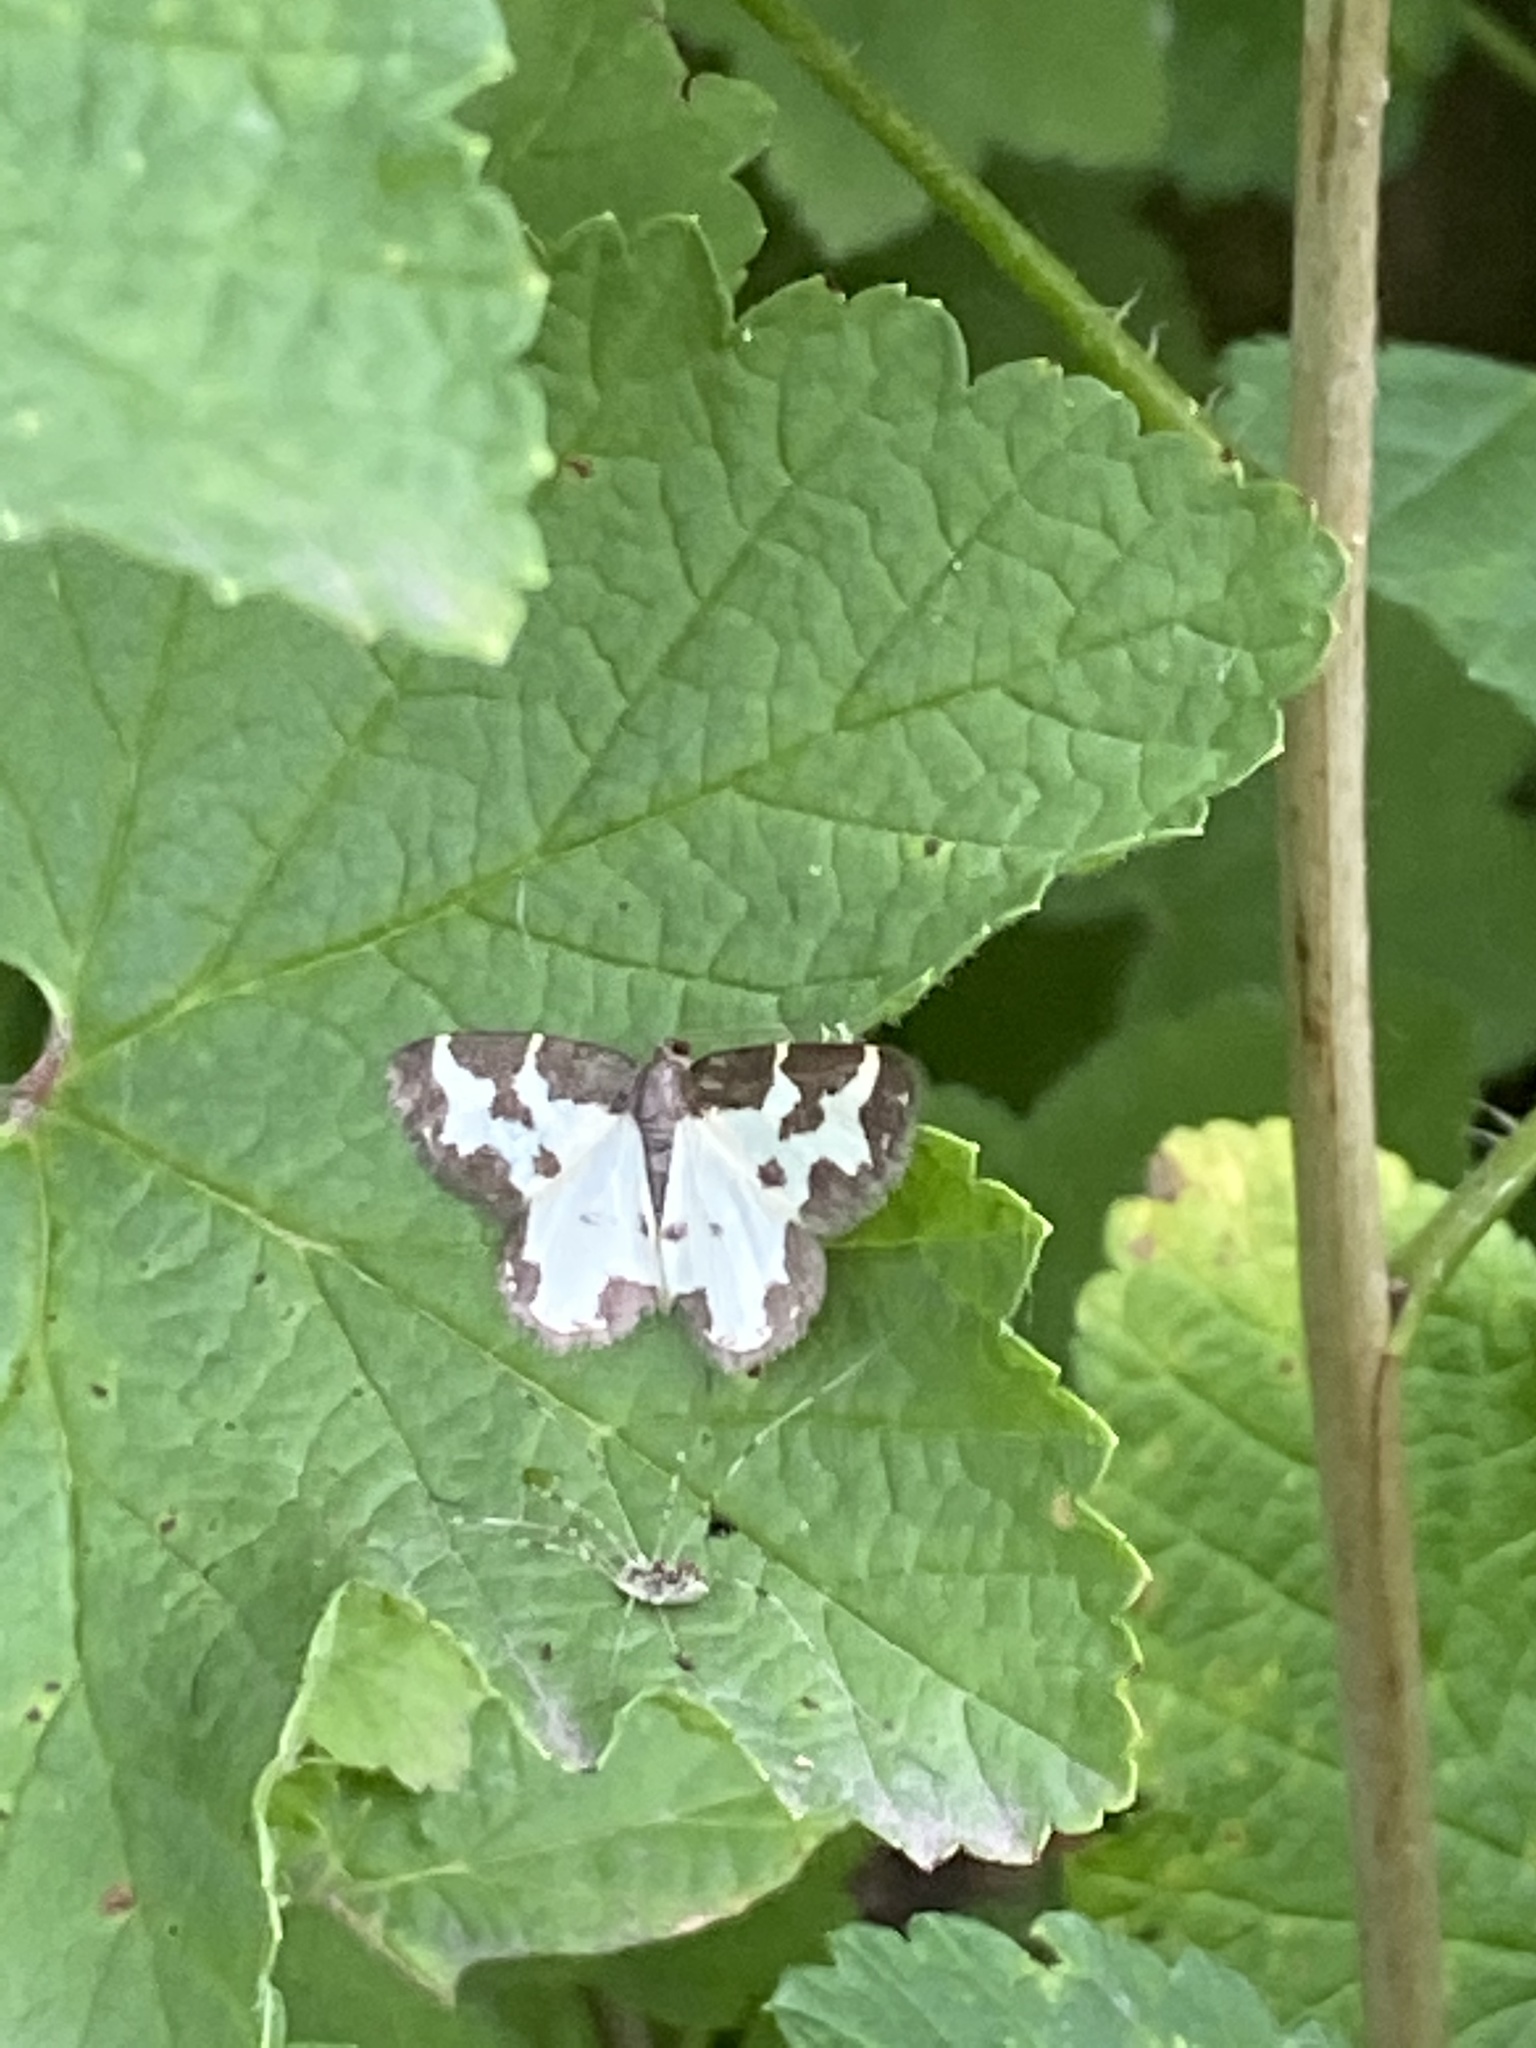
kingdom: Animalia
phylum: Arthropoda
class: Insecta
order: Lepidoptera
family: Geometridae
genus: Lomaspilis
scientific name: Lomaspilis marginata
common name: Clouded border
